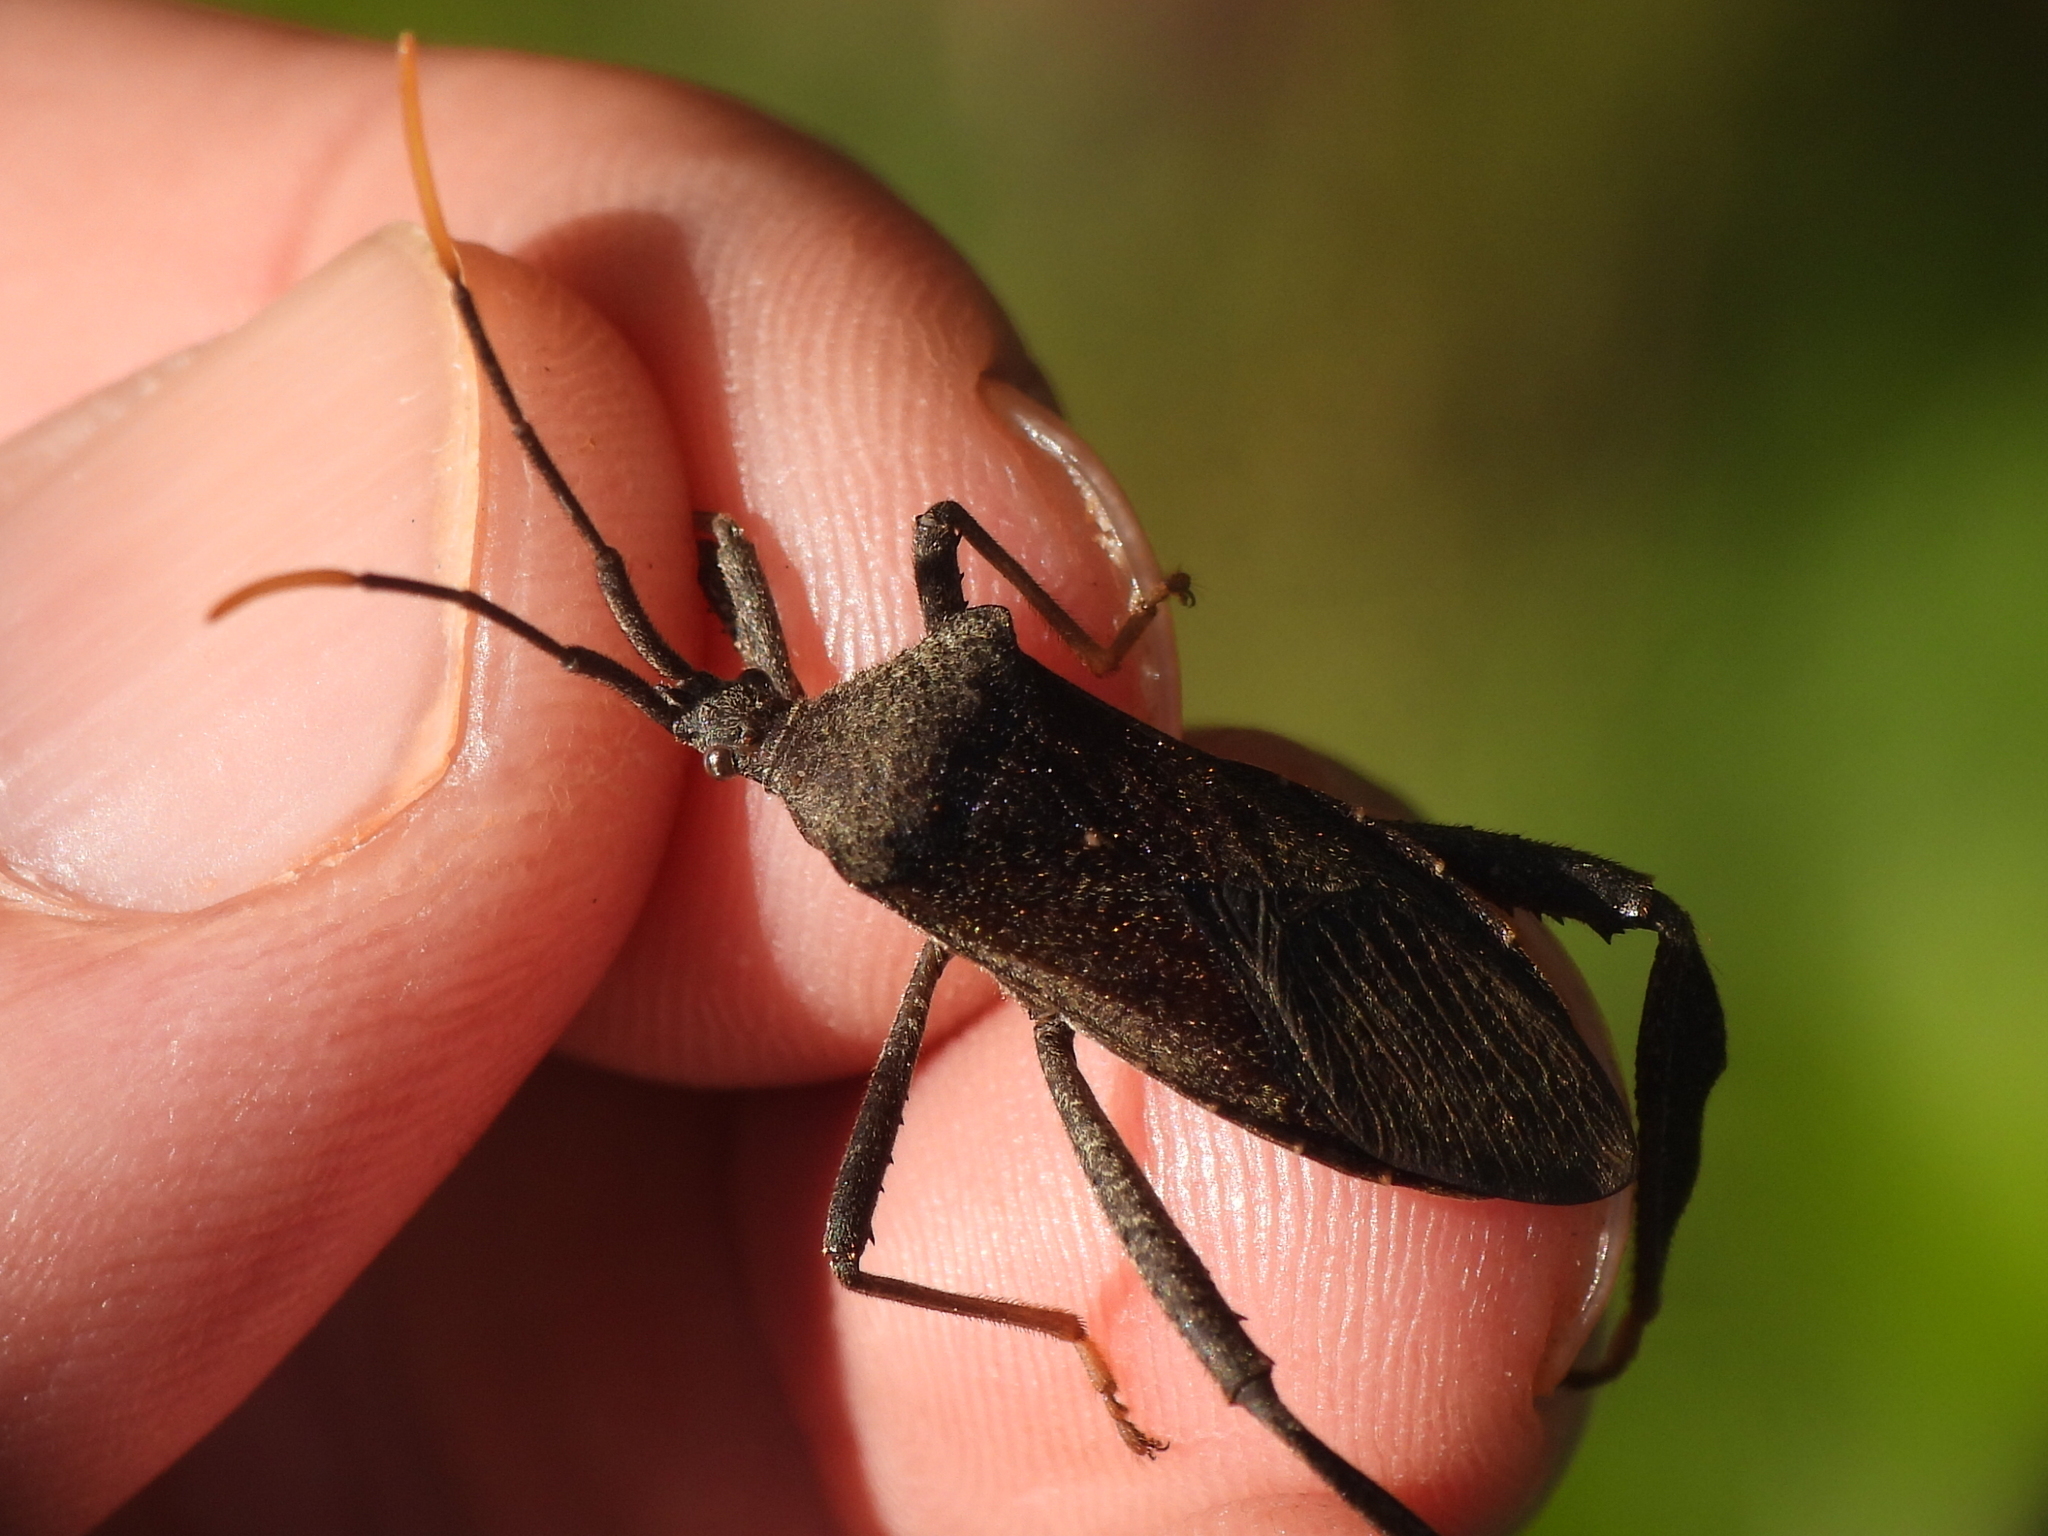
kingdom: Animalia
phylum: Arthropoda
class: Insecta
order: Hemiptera
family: Coreidae
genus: Acanthocephala
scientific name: Acanthocephala terminalis
